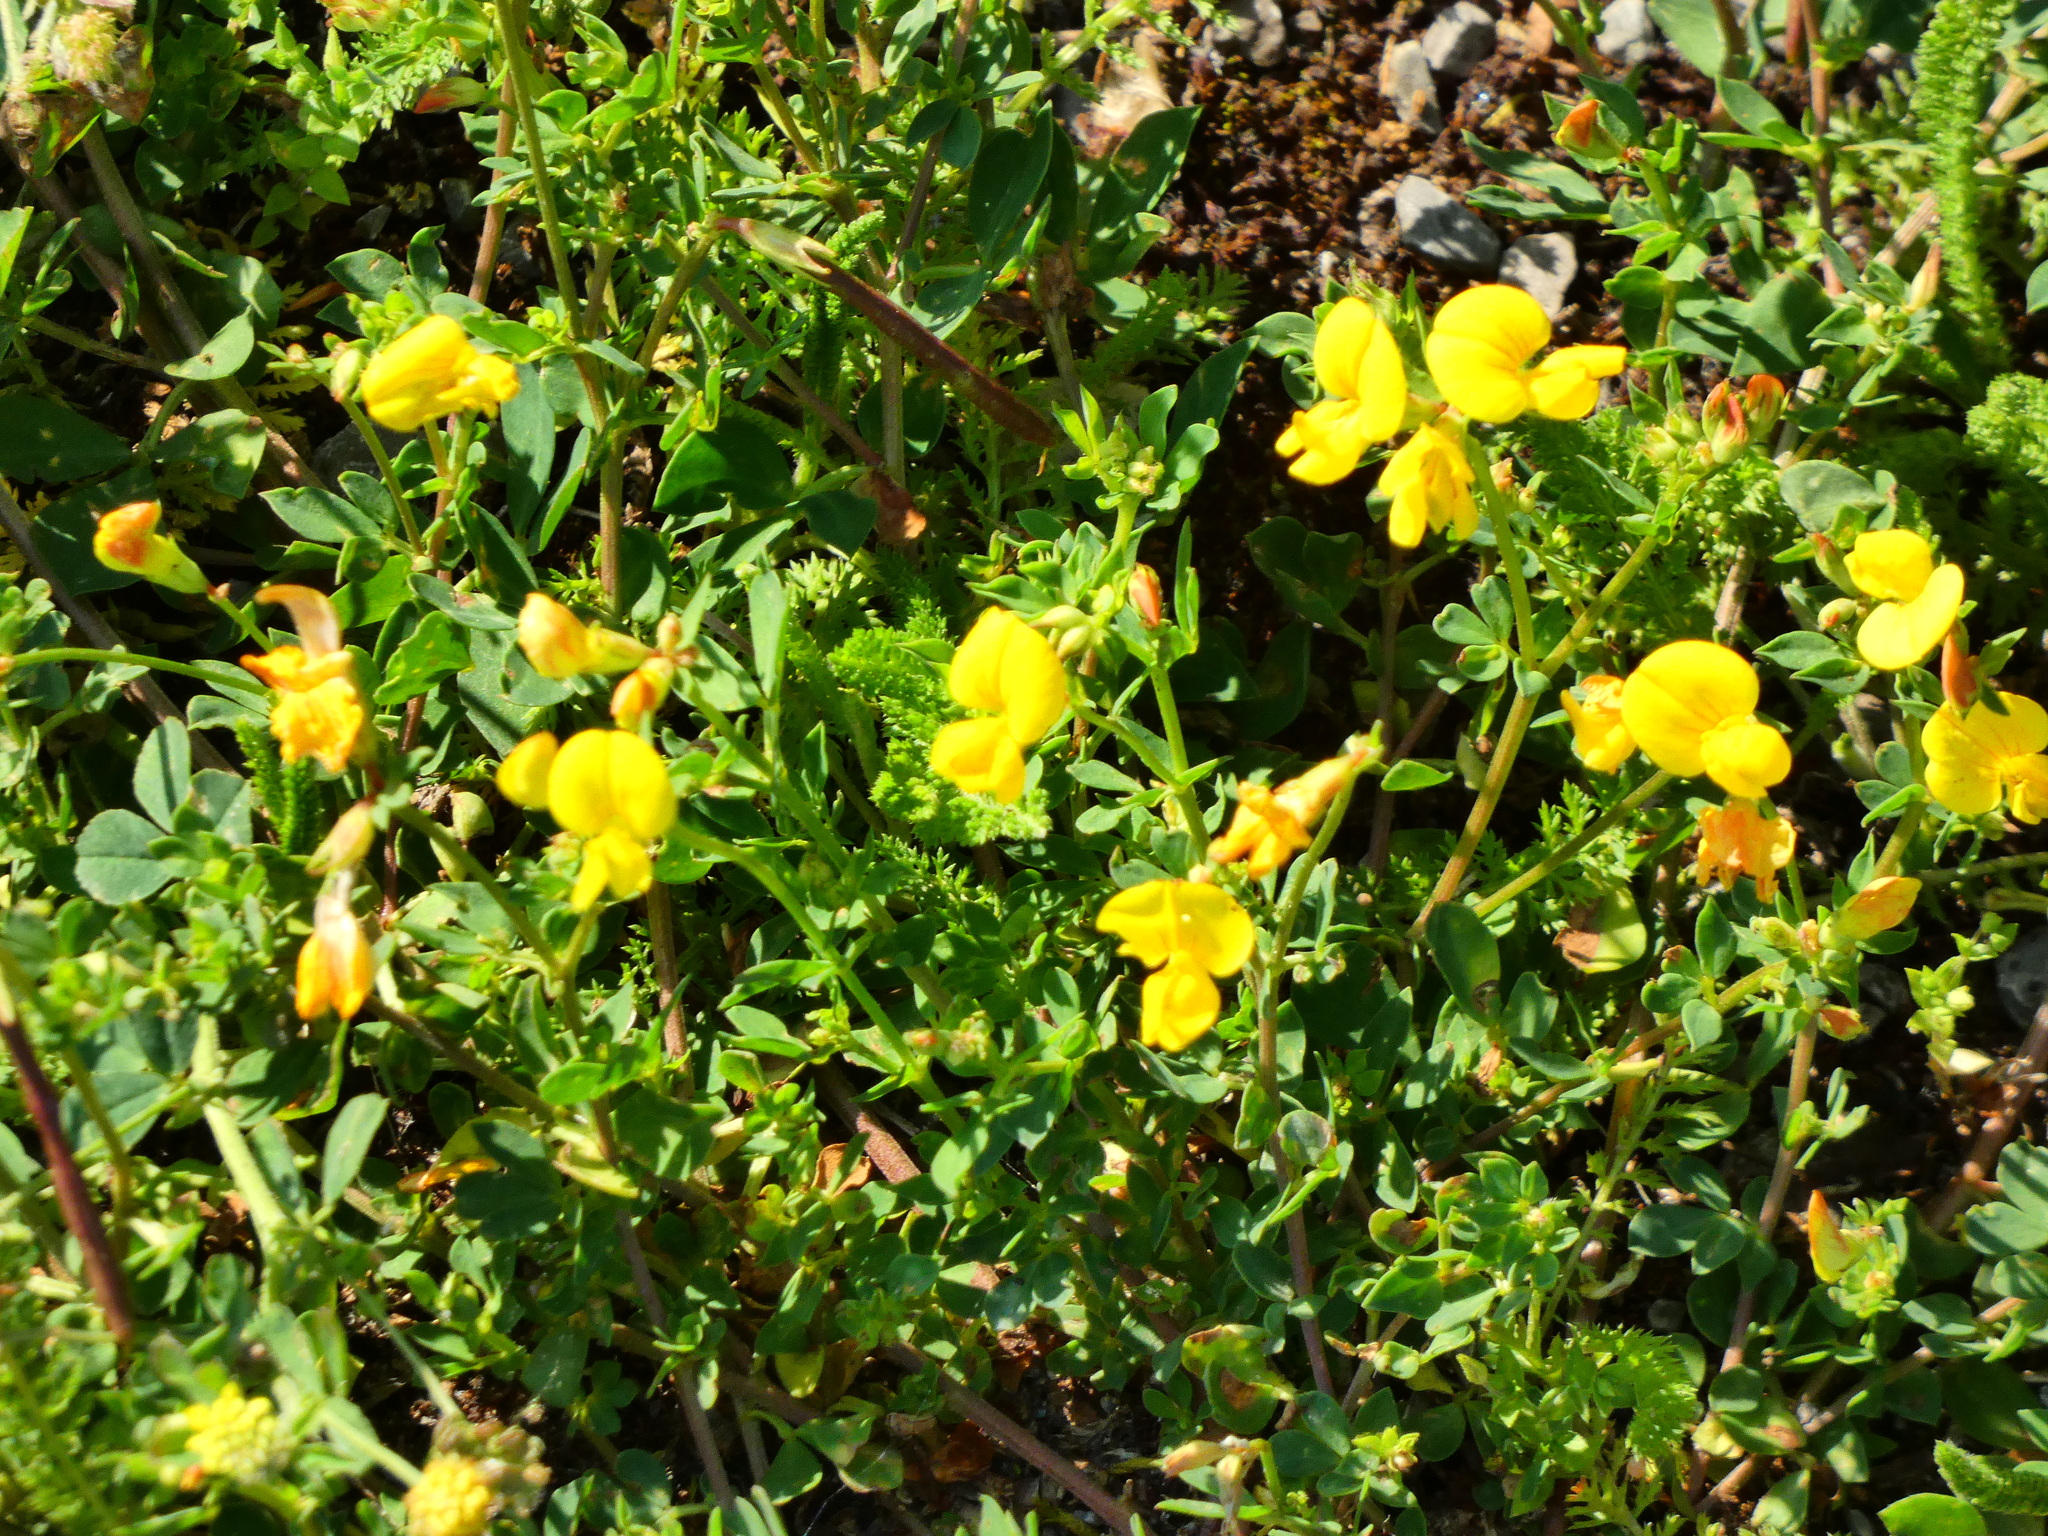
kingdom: Plantae
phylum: Tracheophyta
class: Magnoliopsida
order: Fabales
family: Fabaceae
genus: Lotus
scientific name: Lotus corniculatus
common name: Common bird's-foot-trefoil
